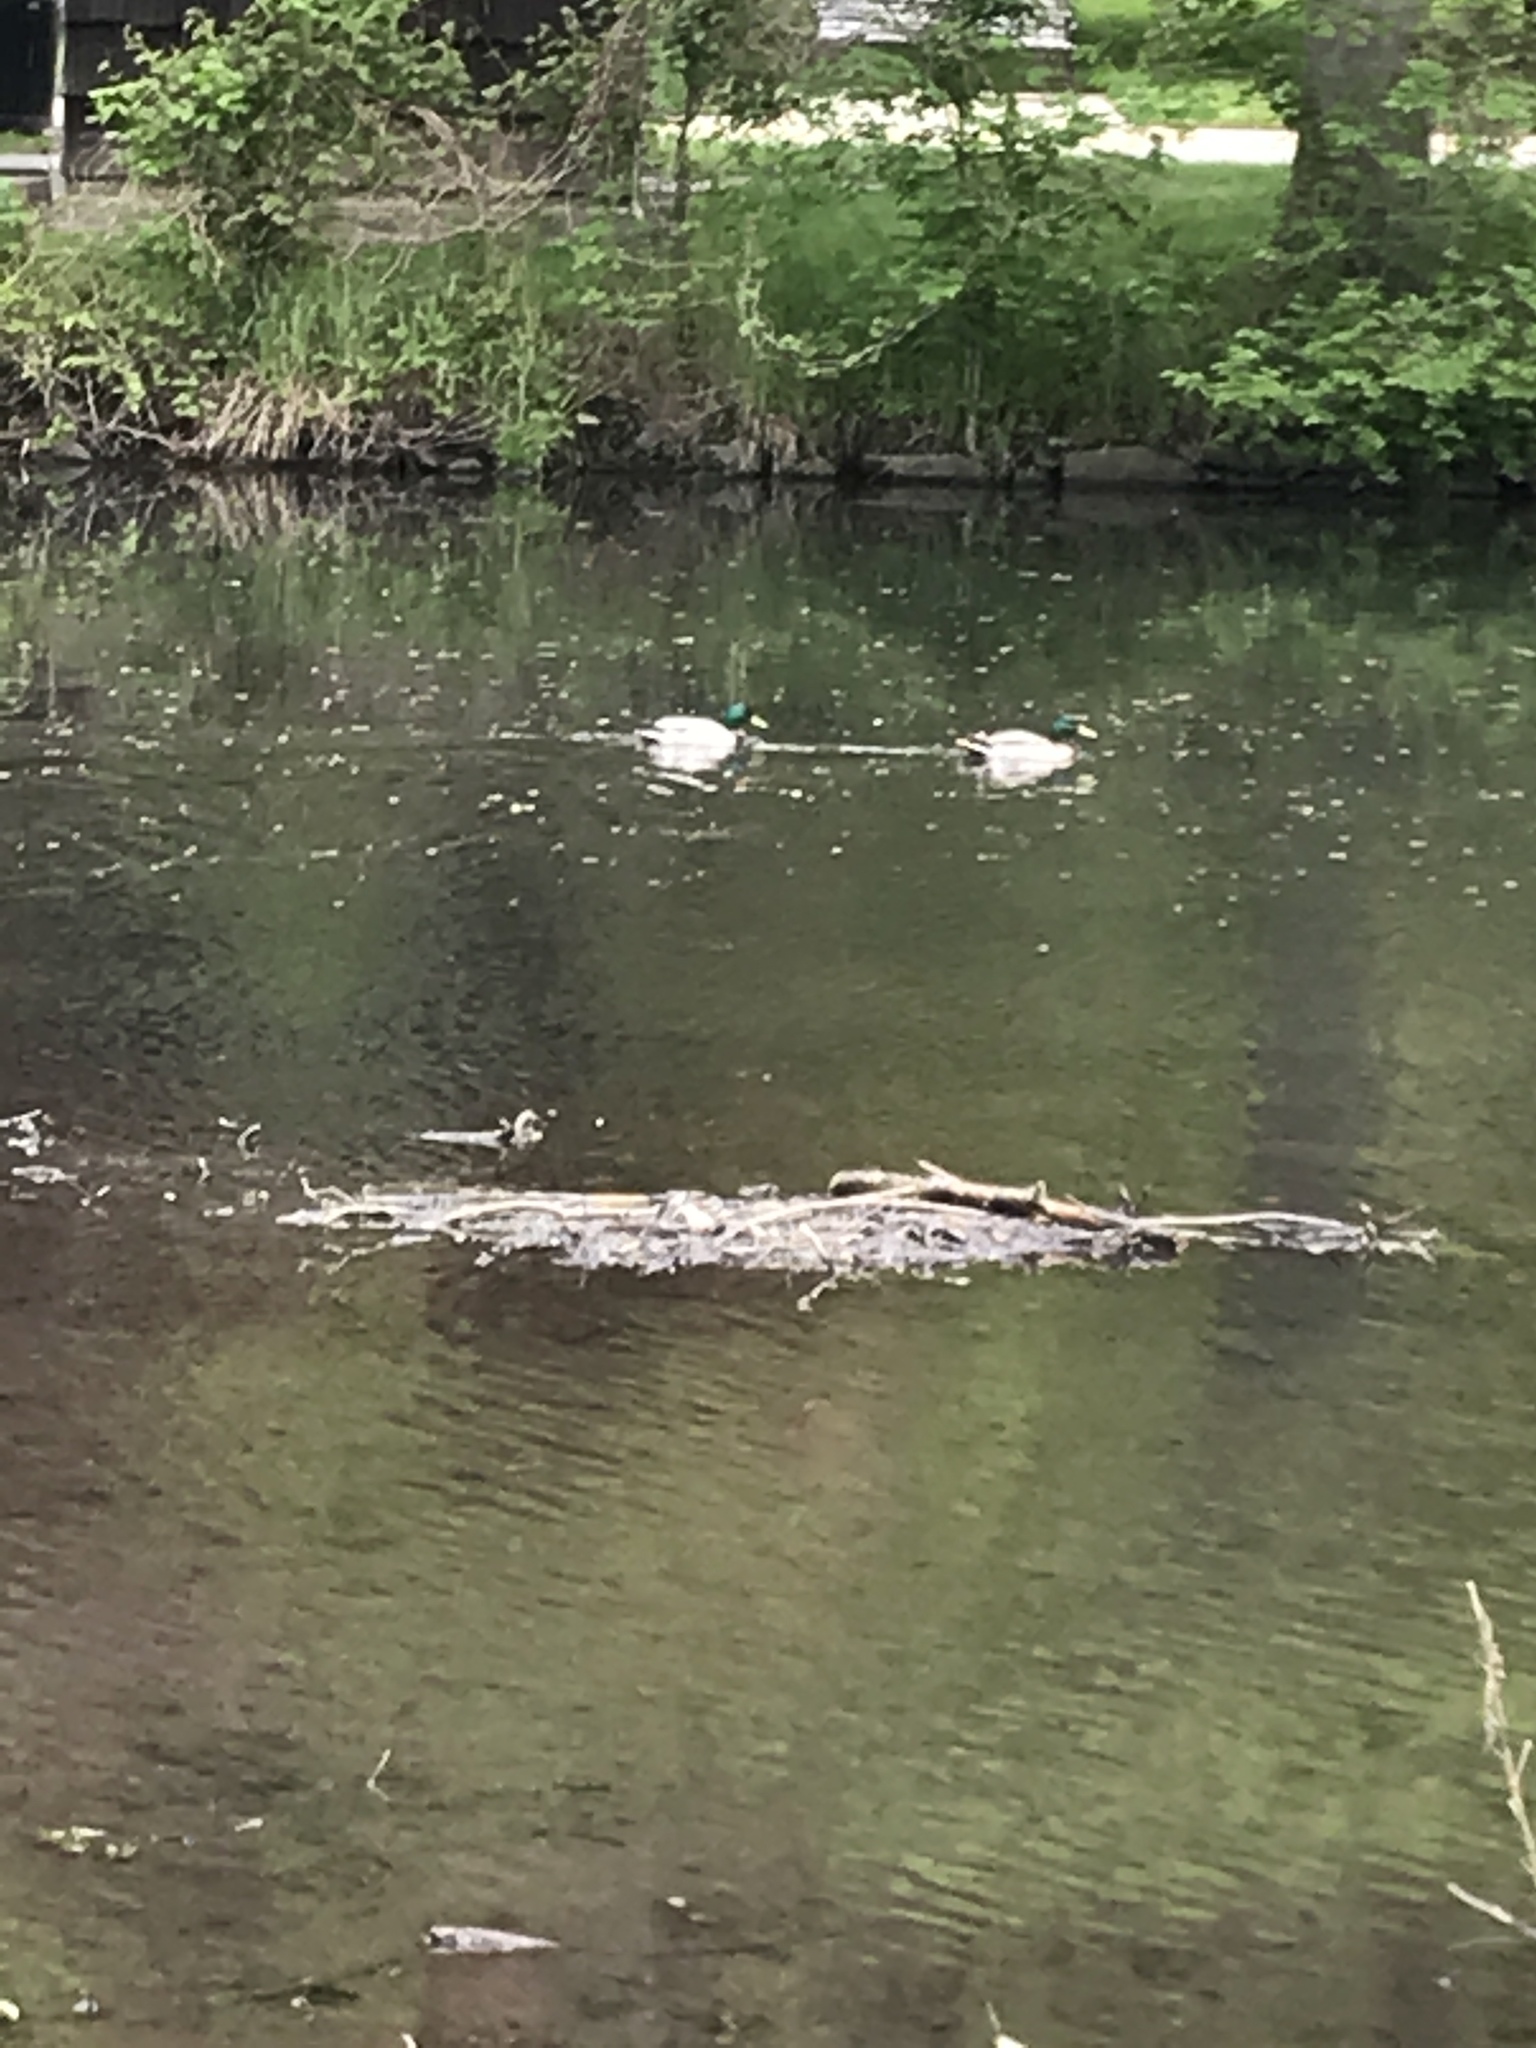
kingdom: Animalia
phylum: Chordata
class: Aves
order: Anseriformes
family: Anatidae
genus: Anas
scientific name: Anas platyrhynchos
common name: Mallard
